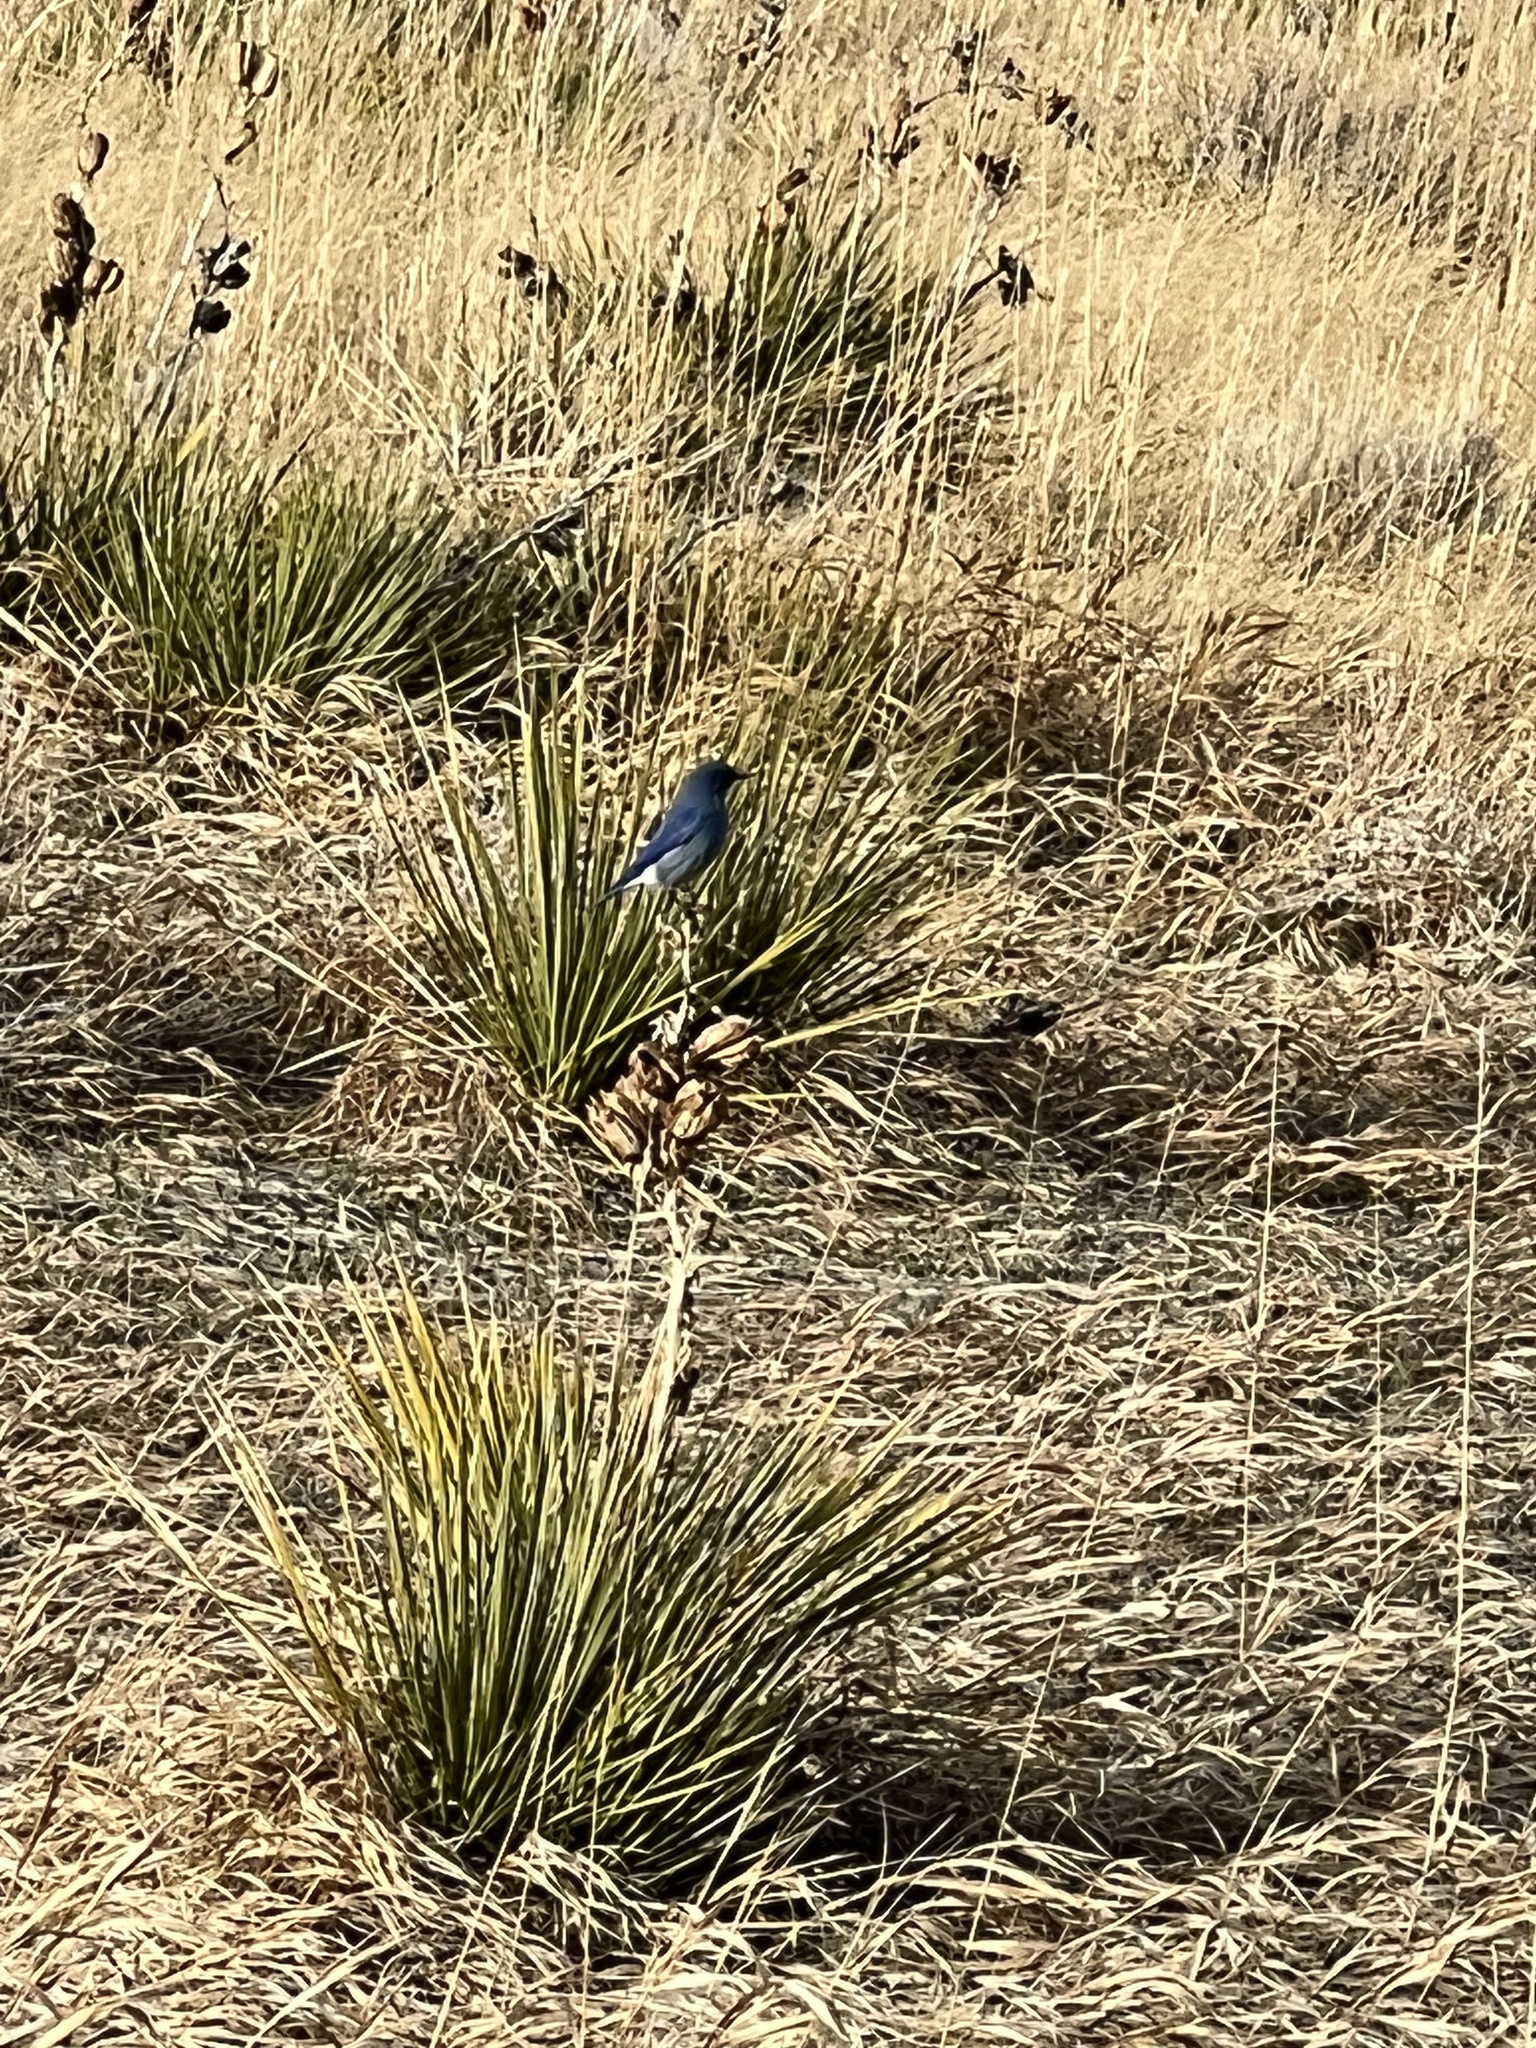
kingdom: Animalia
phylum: Chordata
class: Aves
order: Passeriformes
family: Turdidae
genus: Sialia
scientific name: Sialia currucoides
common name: Mountain bluebird
